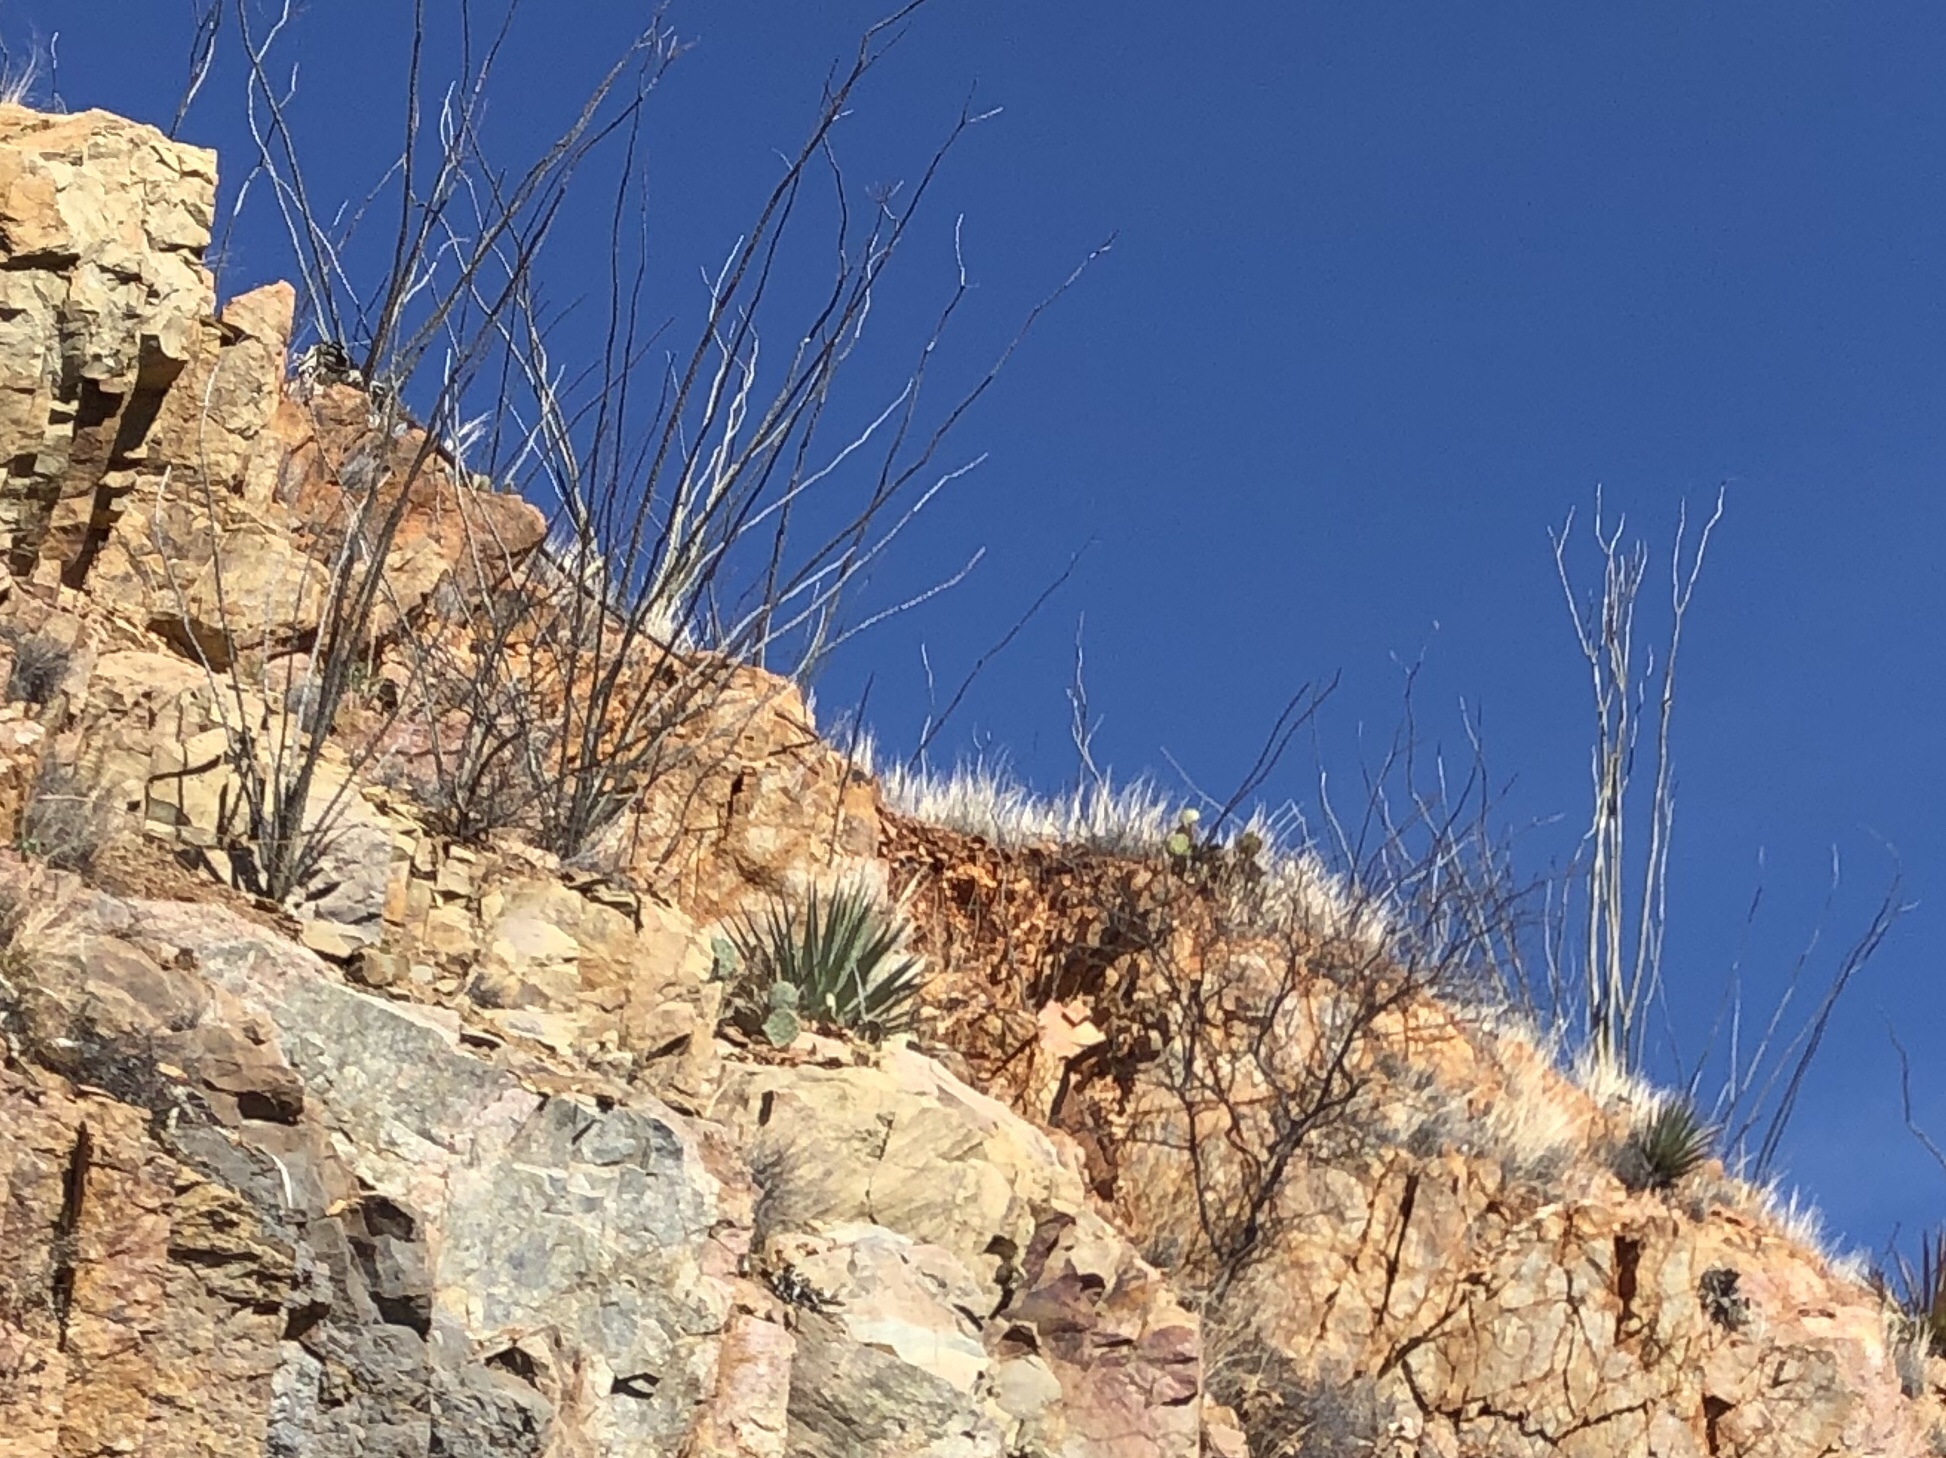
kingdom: Plantae
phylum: Tracheophyta
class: Magnoliopsida
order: Ericales
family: Fouquieriaceae
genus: Fouquieria
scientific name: Fouquieria splendens
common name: Vine-cactus
